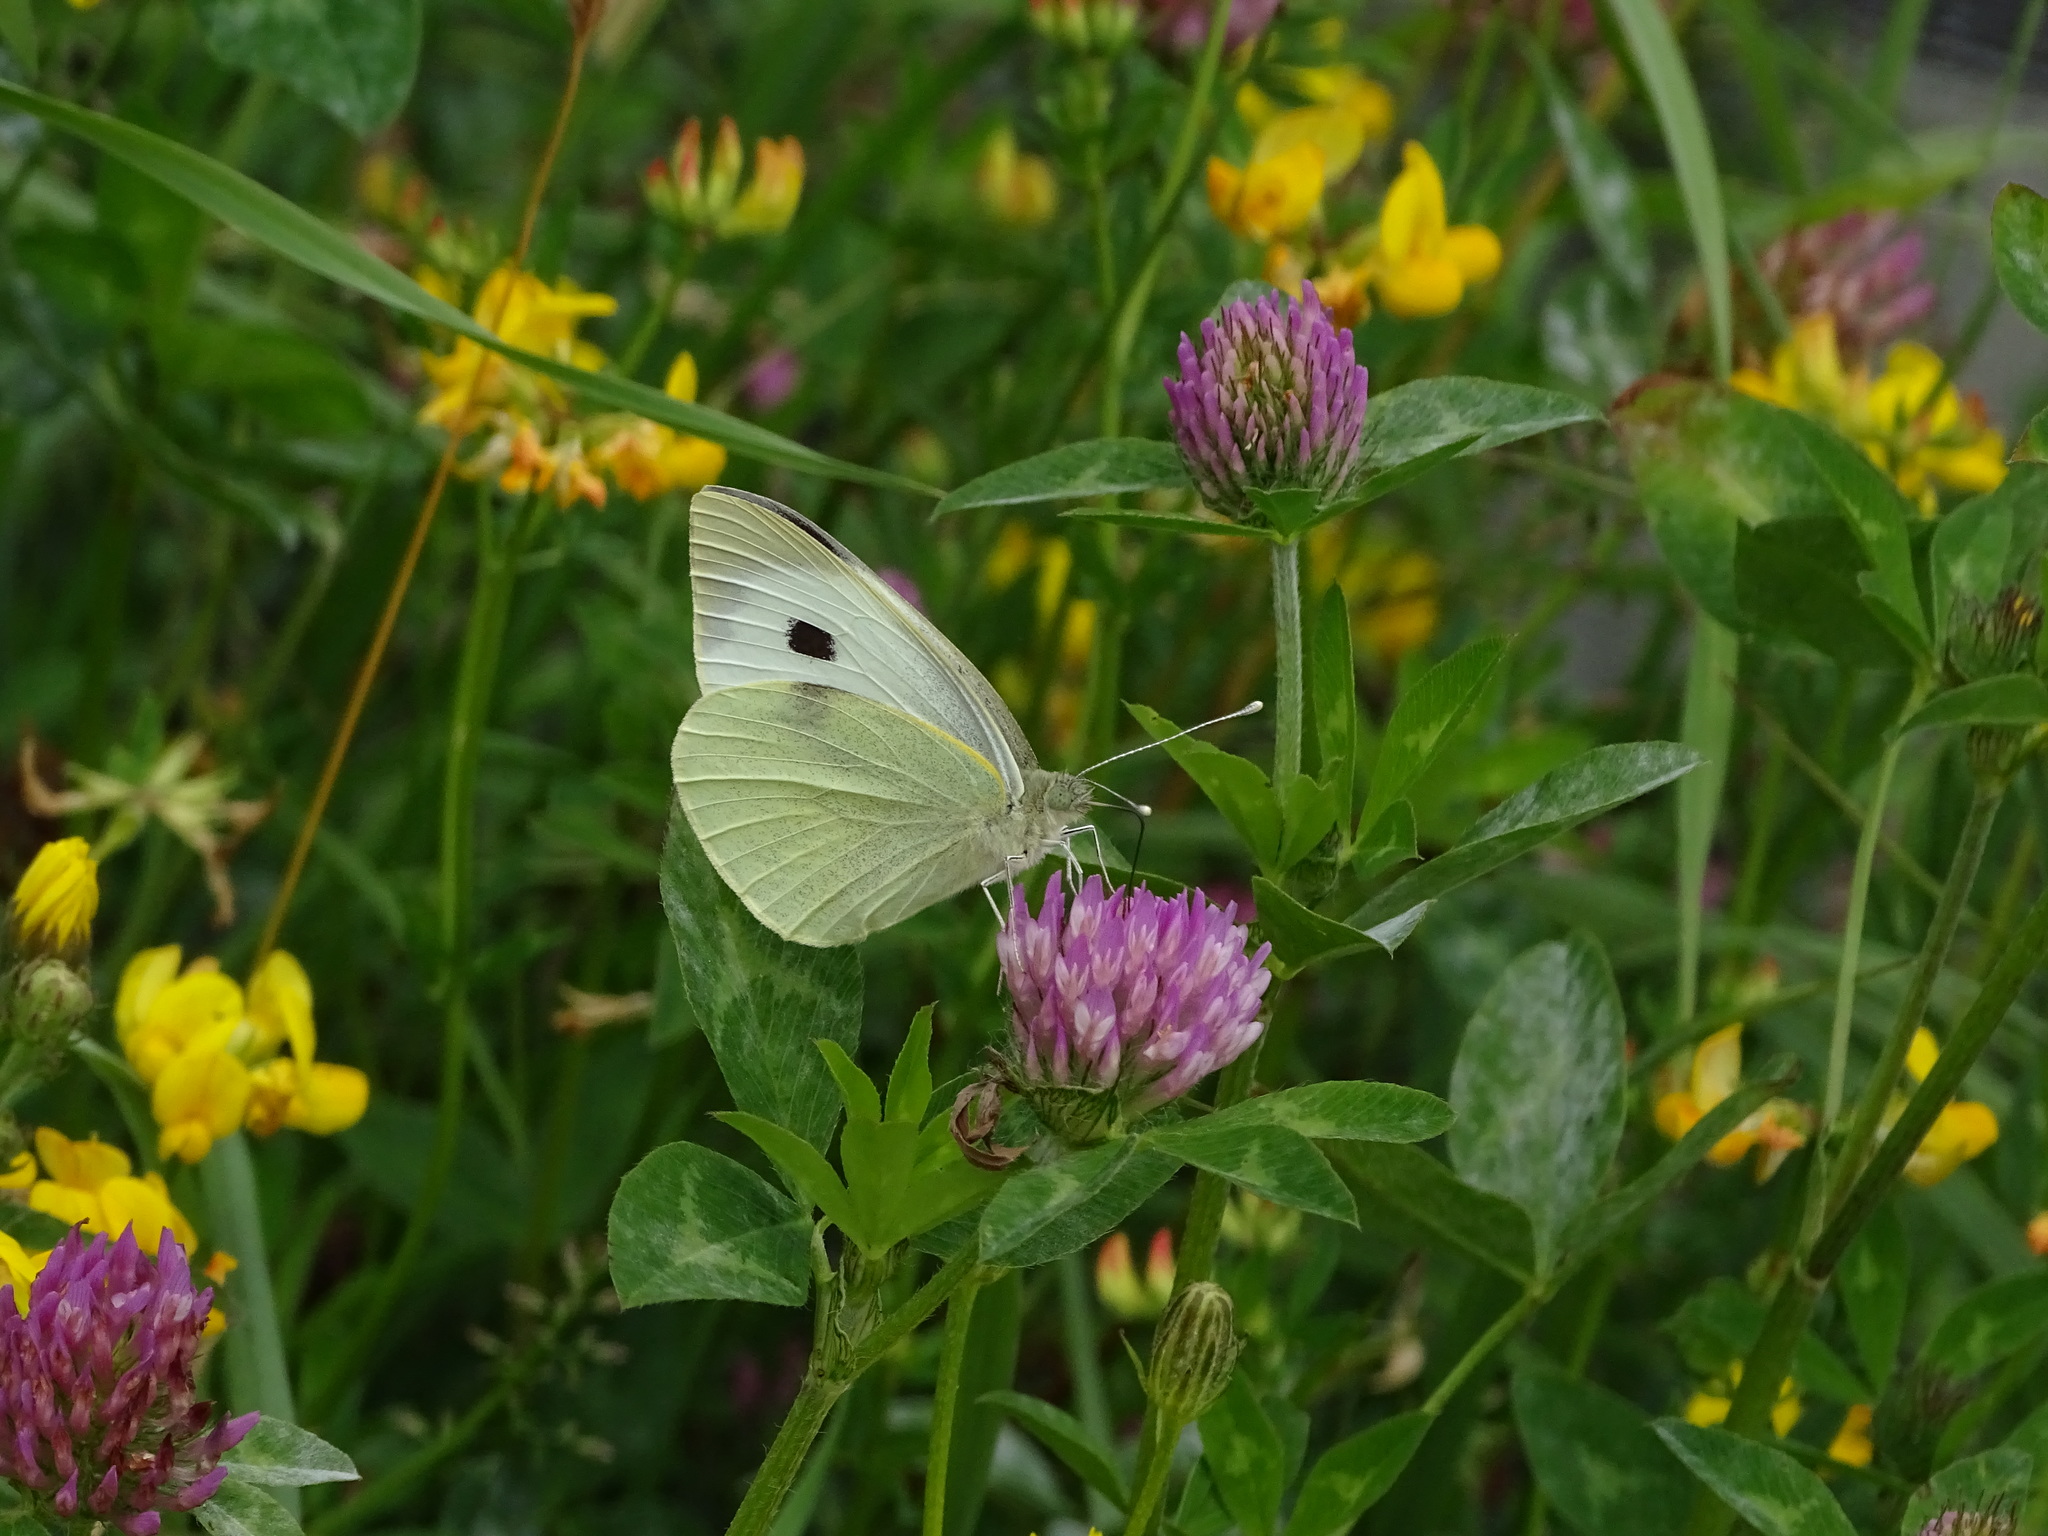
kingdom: Animalia
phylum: Arthropoda
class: Insecta
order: Lepidoptera
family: Pieridae
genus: Pieris
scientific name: Pieris brassicae
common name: Large white
